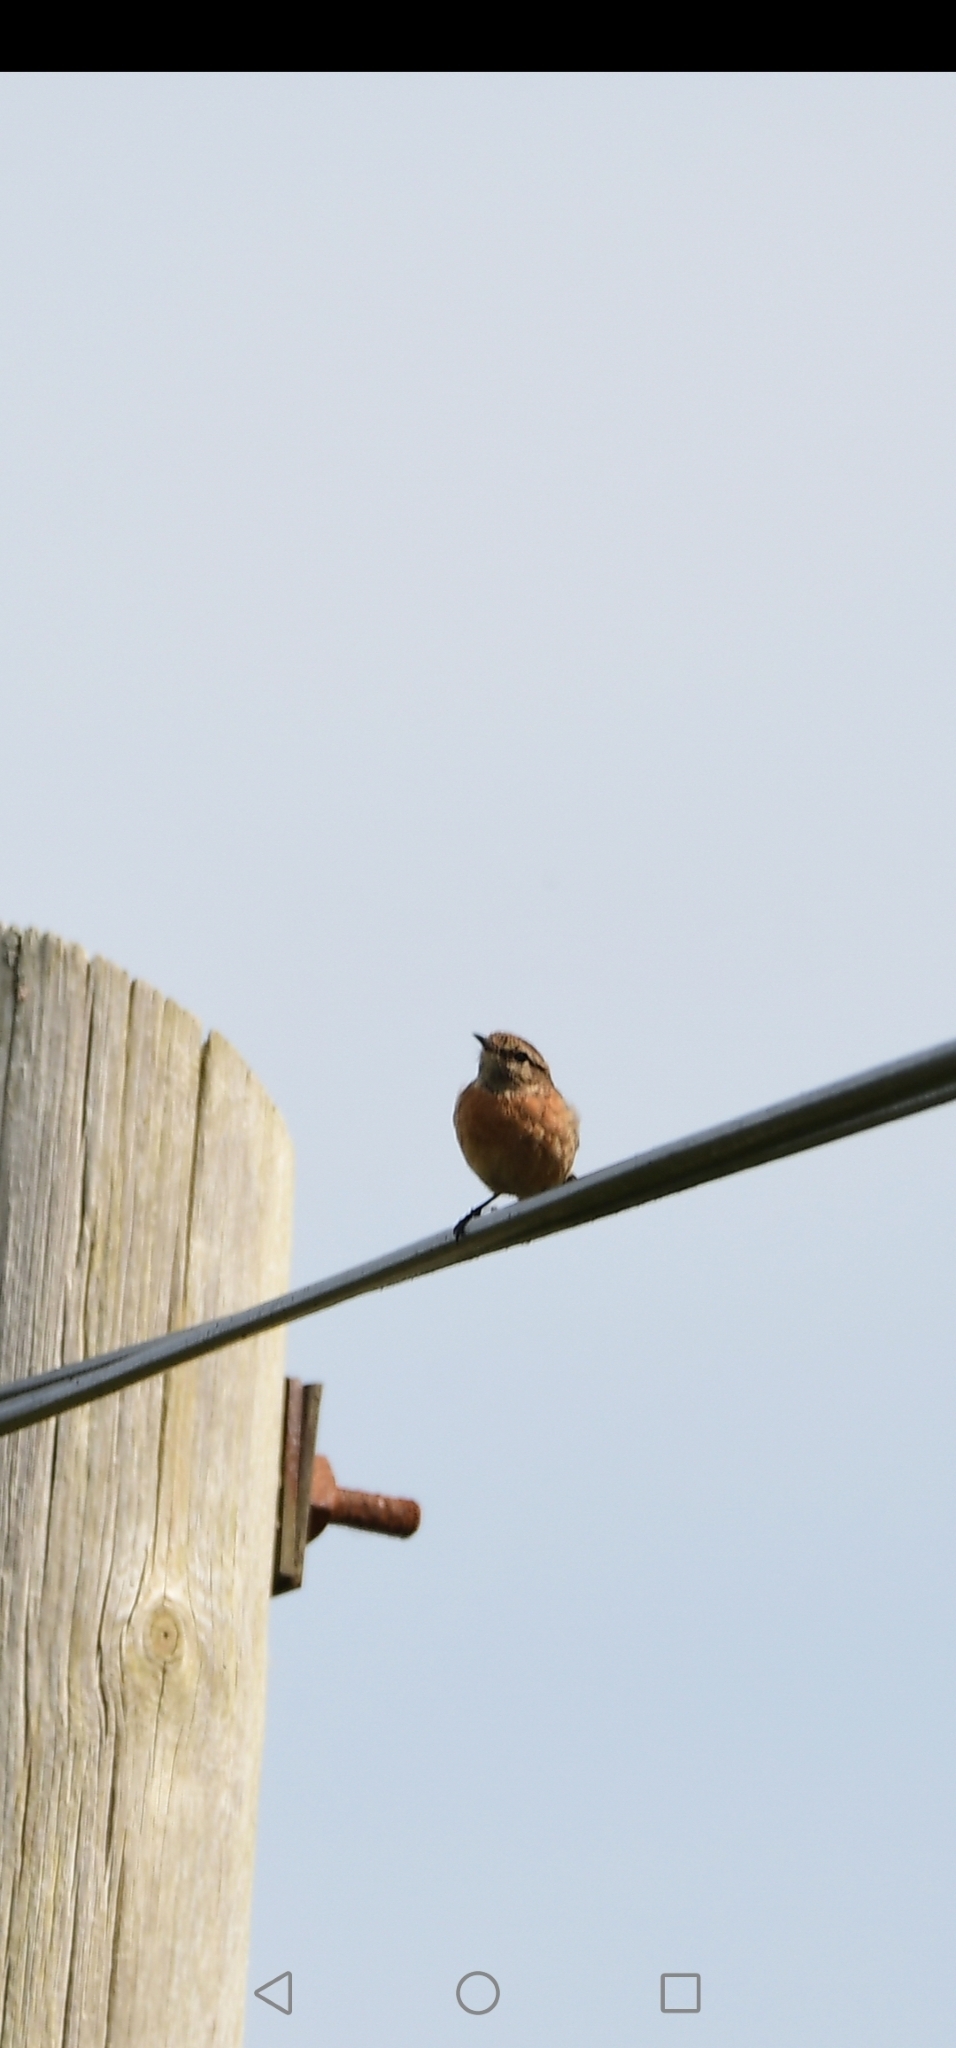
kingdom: Animalia
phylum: Chordata
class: Aves
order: Passeriformes
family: Muscicapidae
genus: Saxicola
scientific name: Saxicola rubicola
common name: European stonechat
